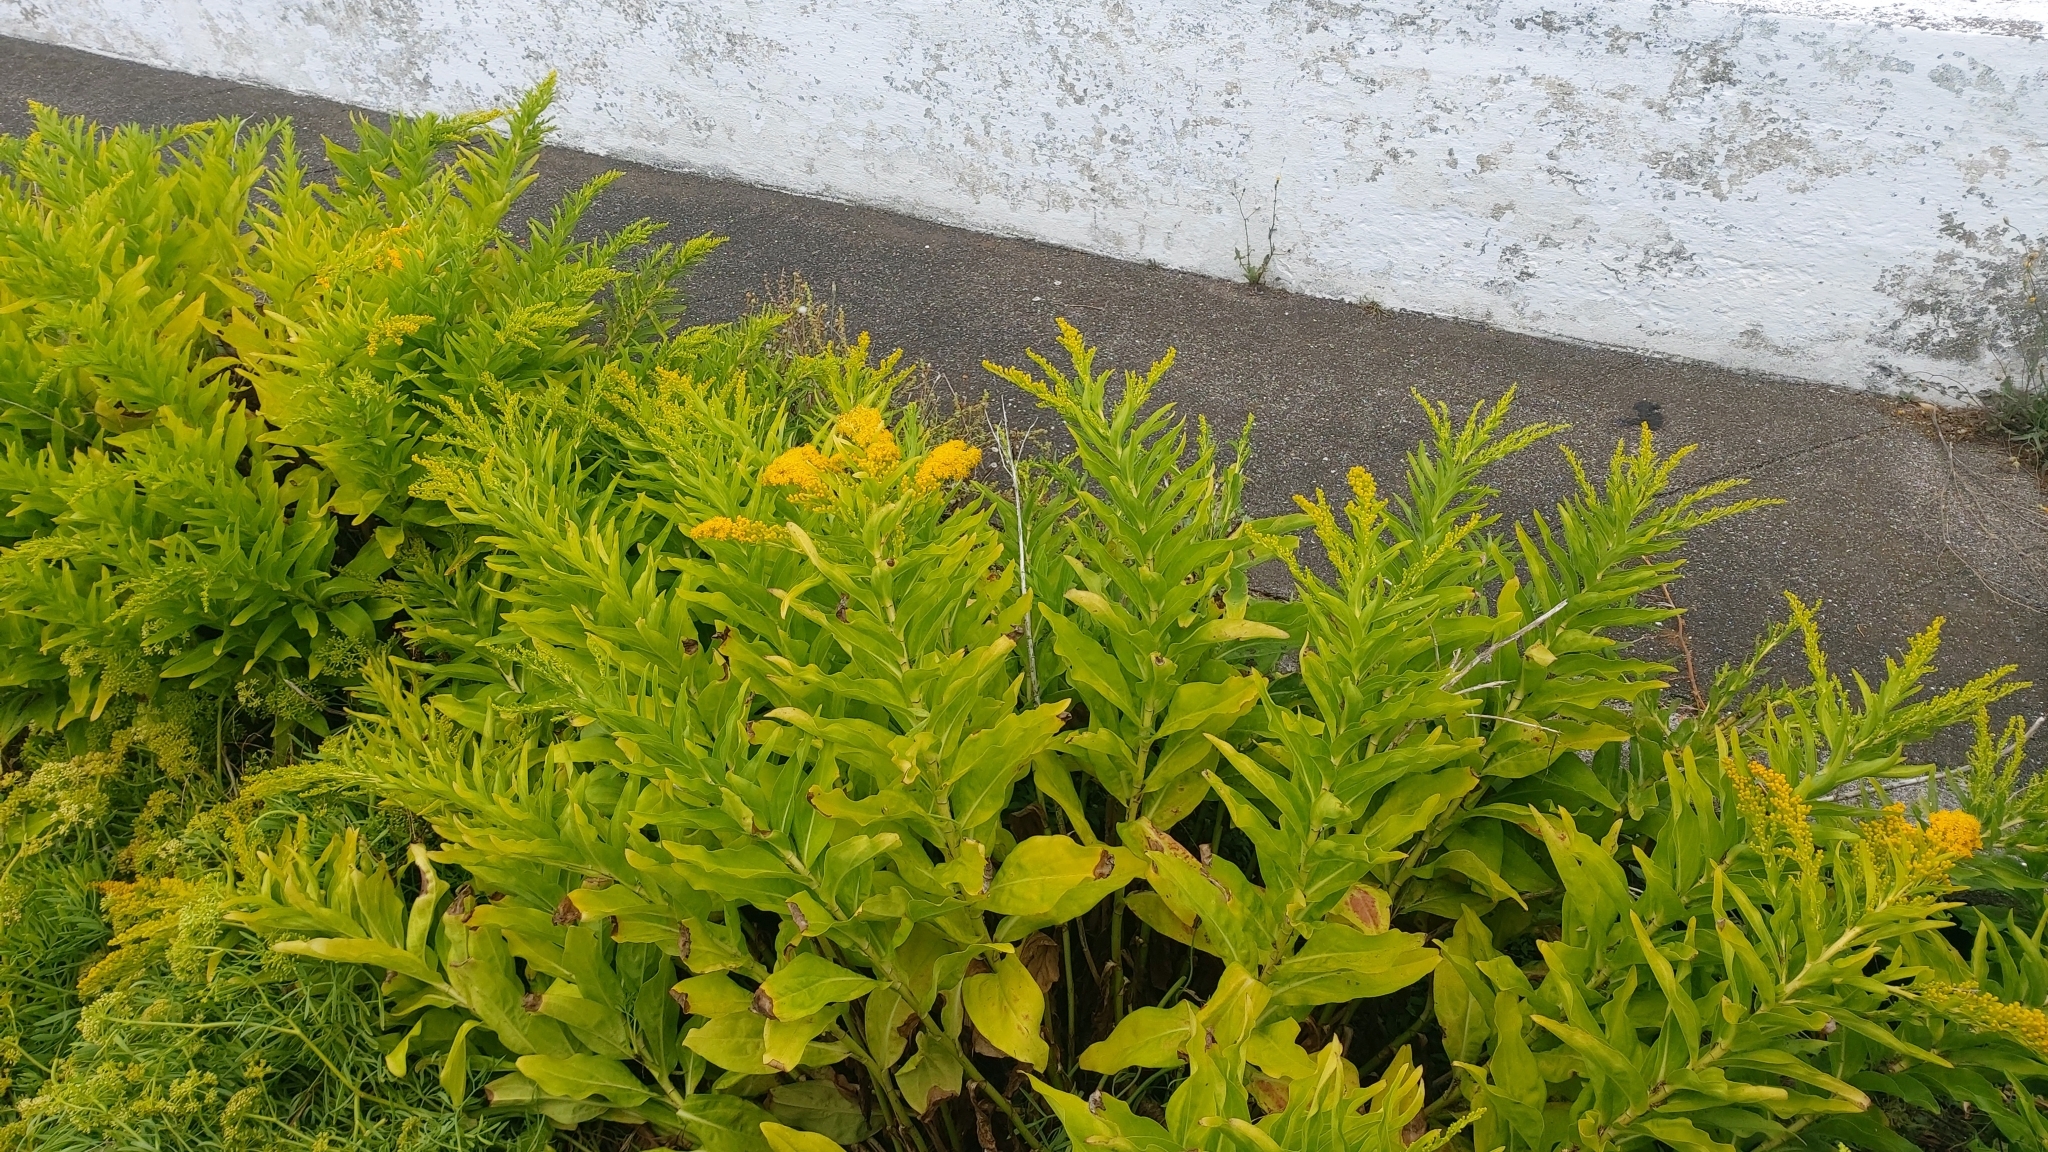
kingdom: Plantae
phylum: Tracheophyta
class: Magnoliopsida
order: Asterales
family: Asteraceae
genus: Solidago
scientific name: Solidago azorica
